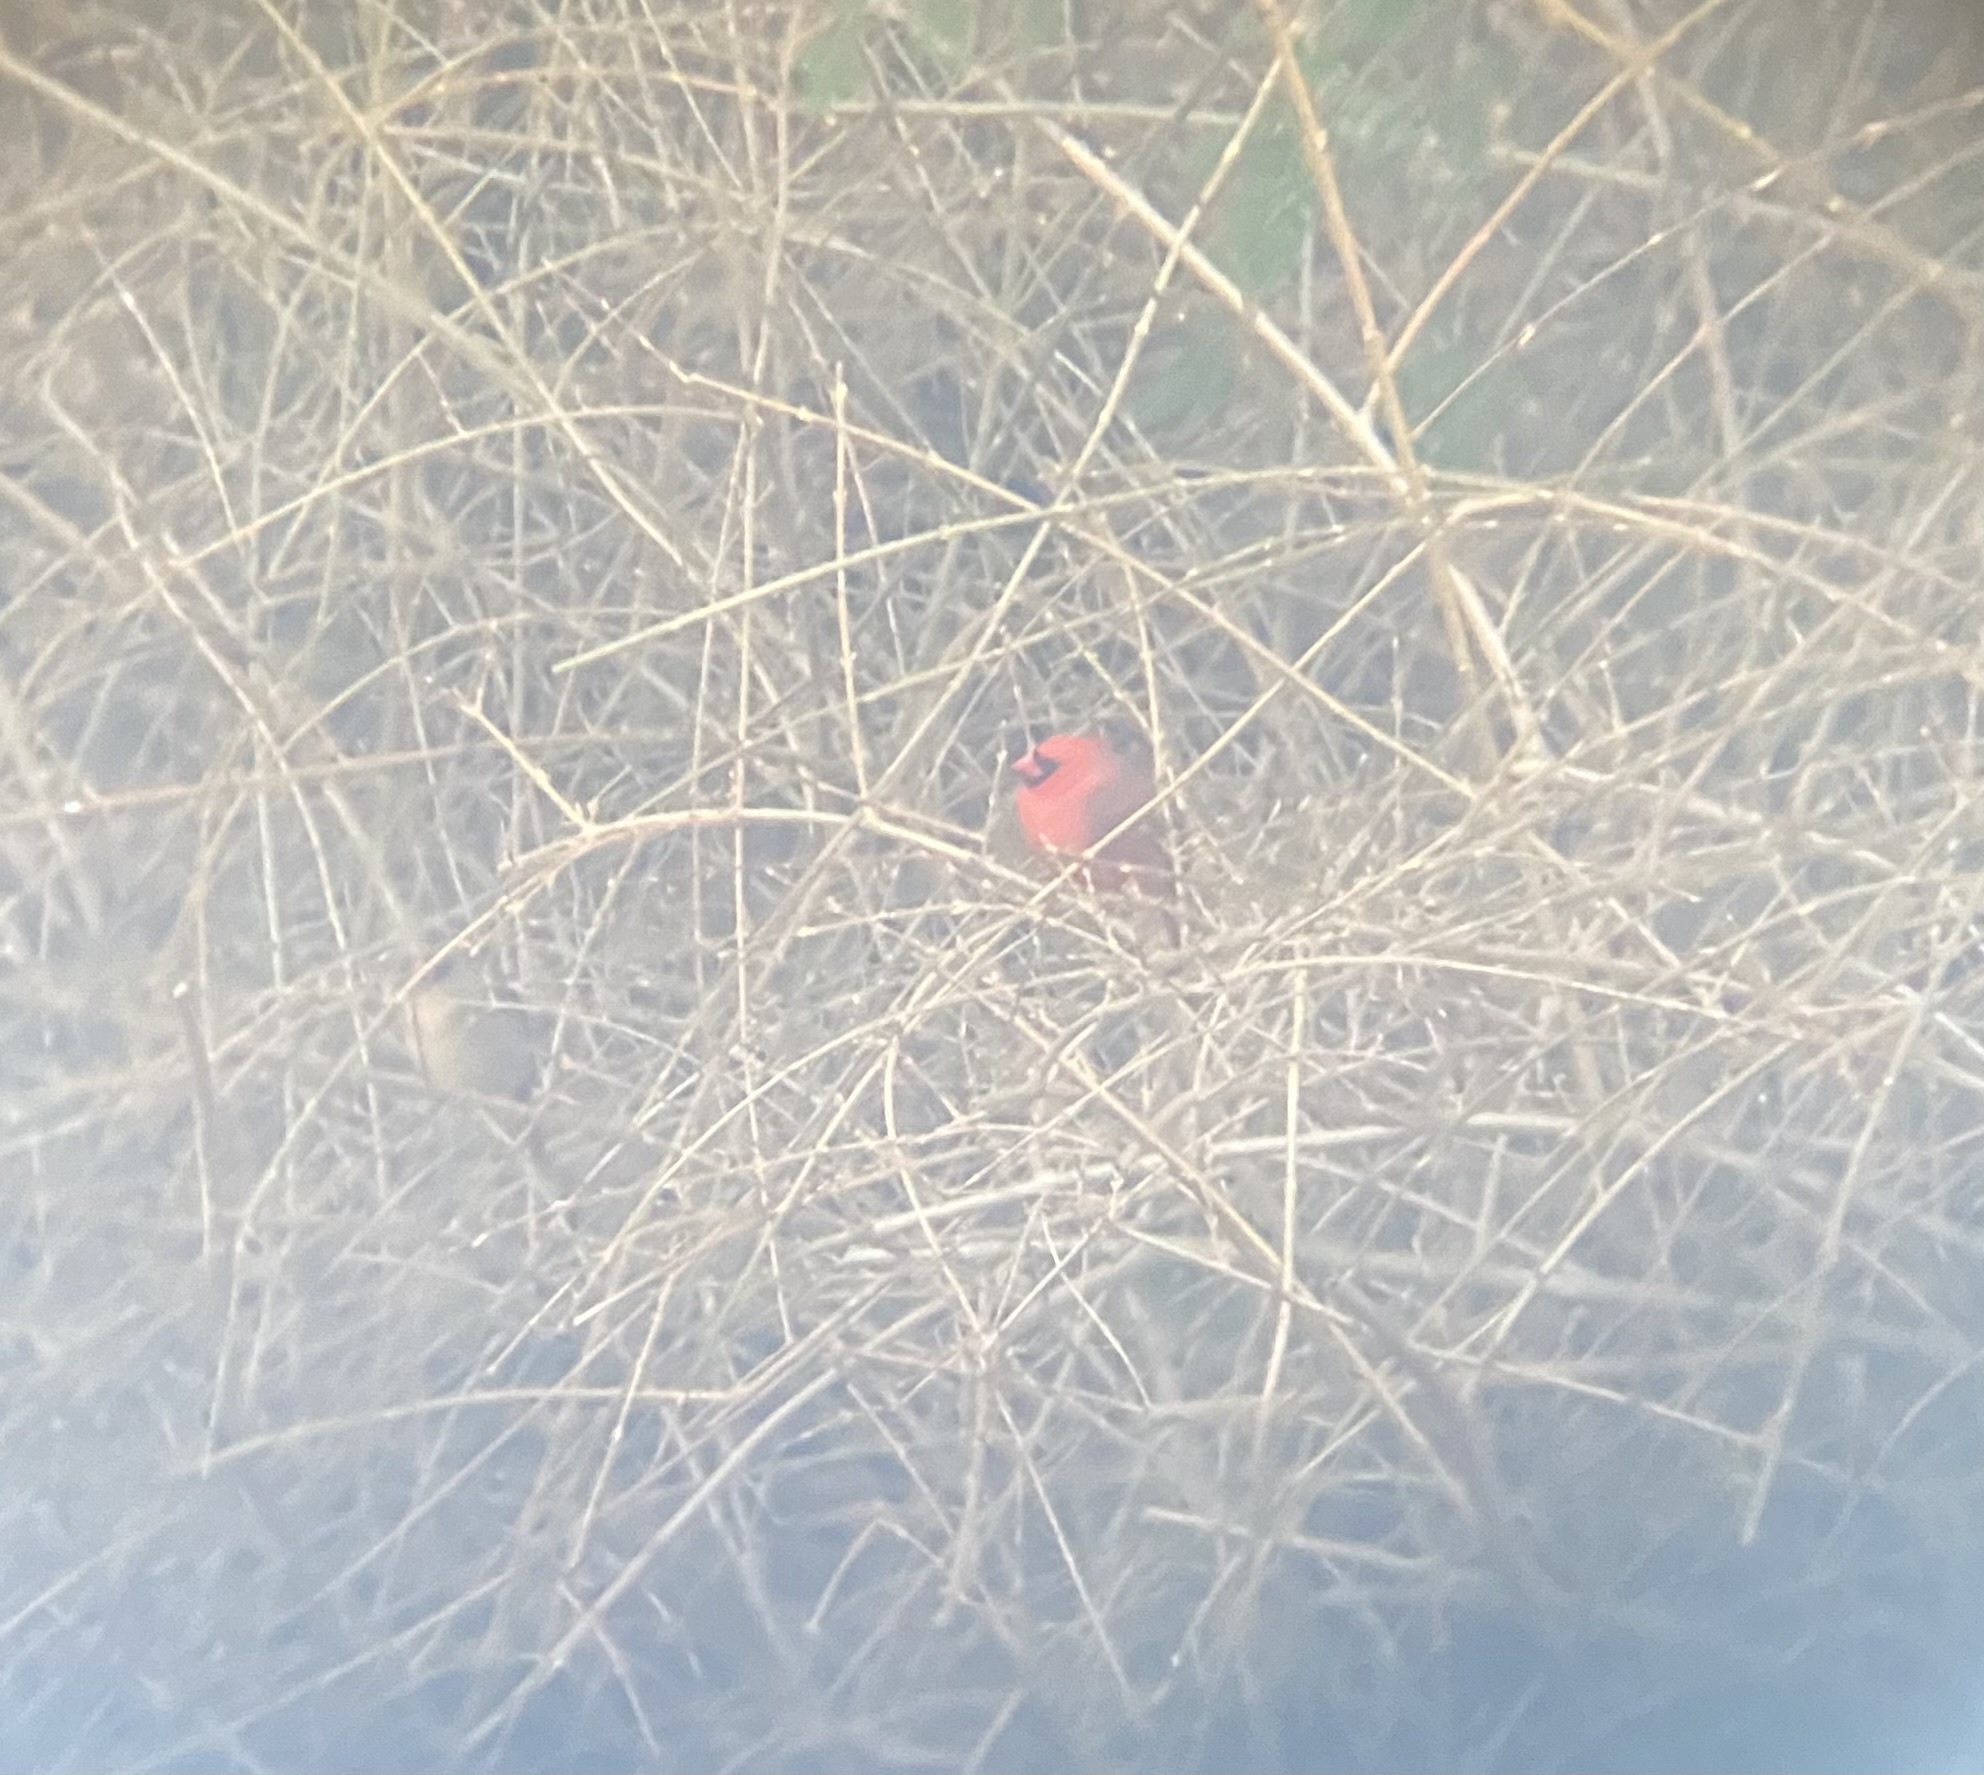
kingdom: Animalia
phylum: Chordata
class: Aves
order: Passeriformes
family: Cardinalidae
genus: Cardinalis
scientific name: Cardinalis cardinalis
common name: Northern cardinal
